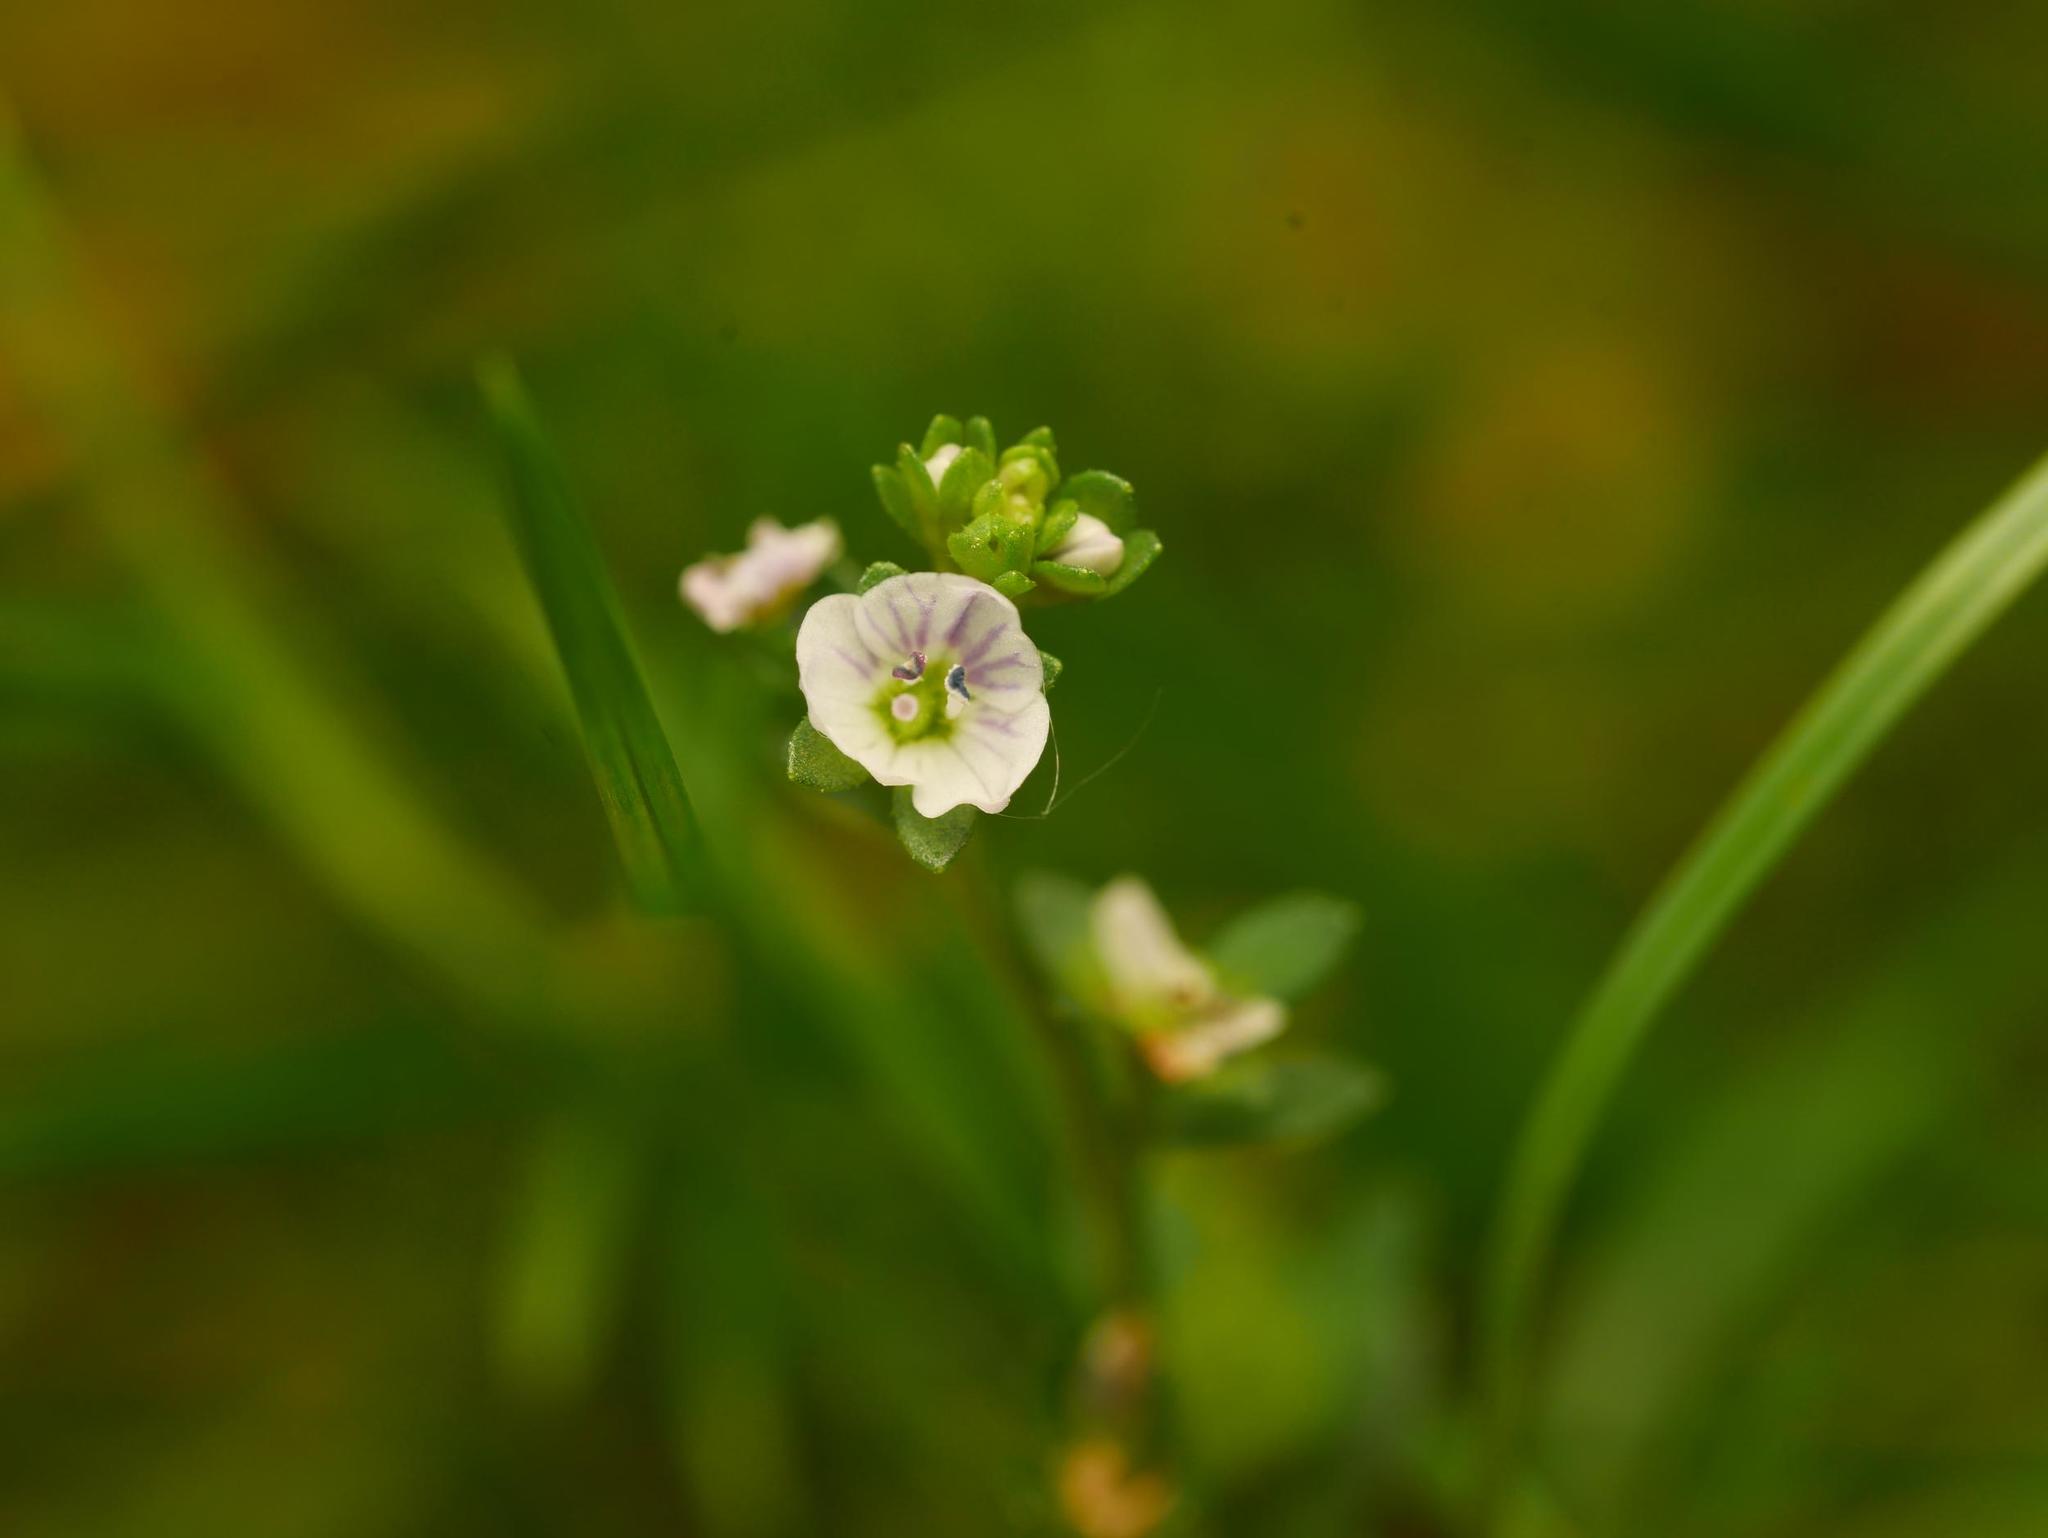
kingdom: Plantae
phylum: Tracheophyta
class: Magnoliopsida
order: Lamiales
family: Plantaginaceae
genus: Veronica
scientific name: Veronica serpyllifolia
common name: Thyme-leaved speedwell
